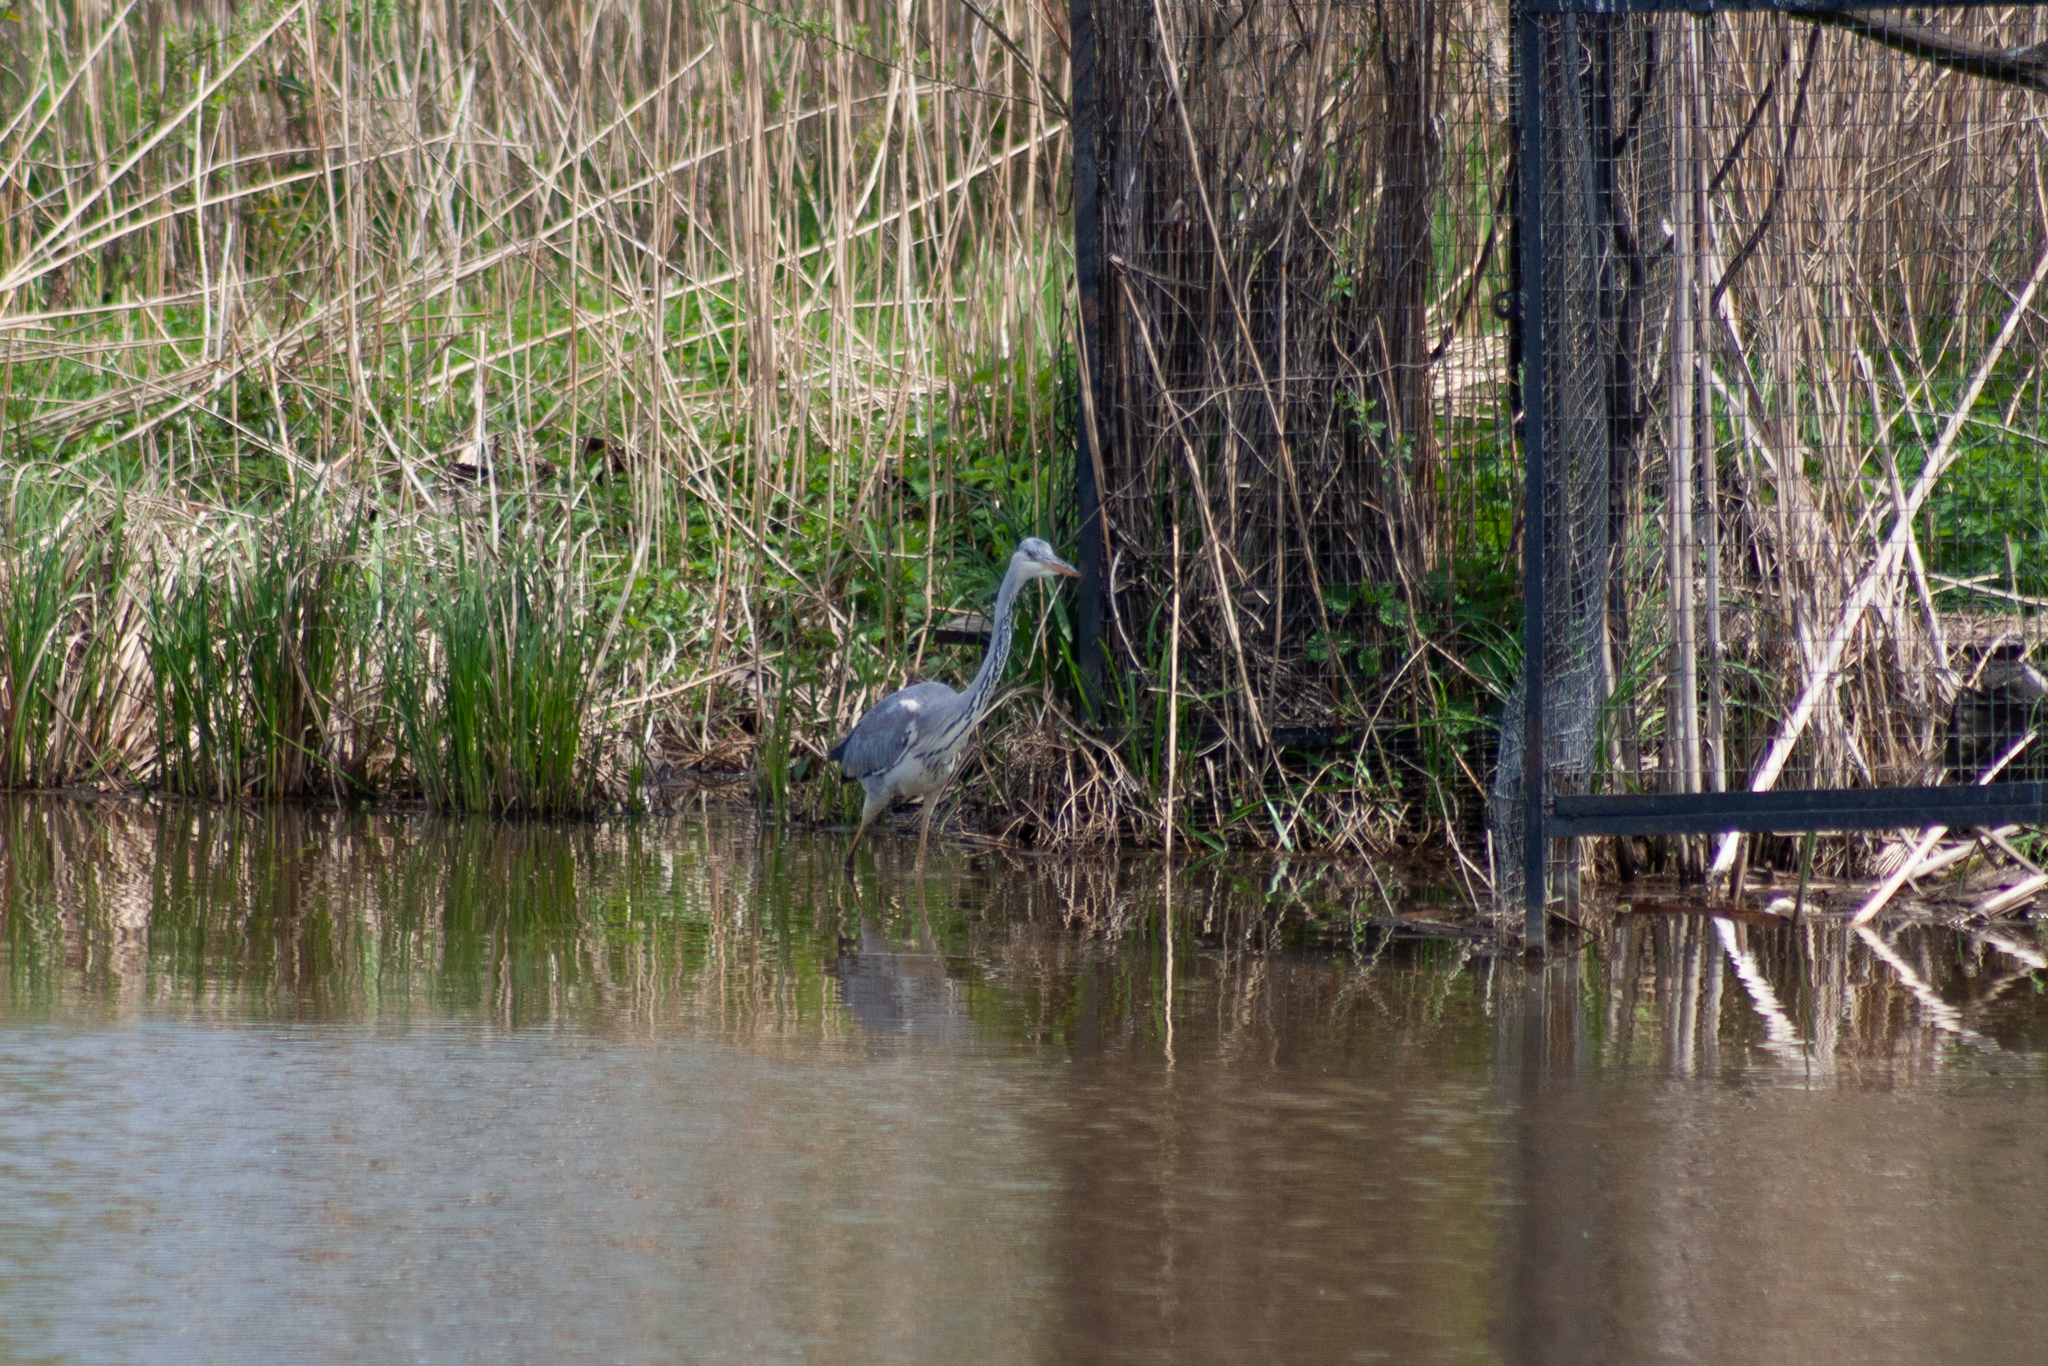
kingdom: Animalia
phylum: Chordata
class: Aves
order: Pelecaniformes
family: Ardeidae
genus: Ardea
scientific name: Ardea cinerea
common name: Grey heron
